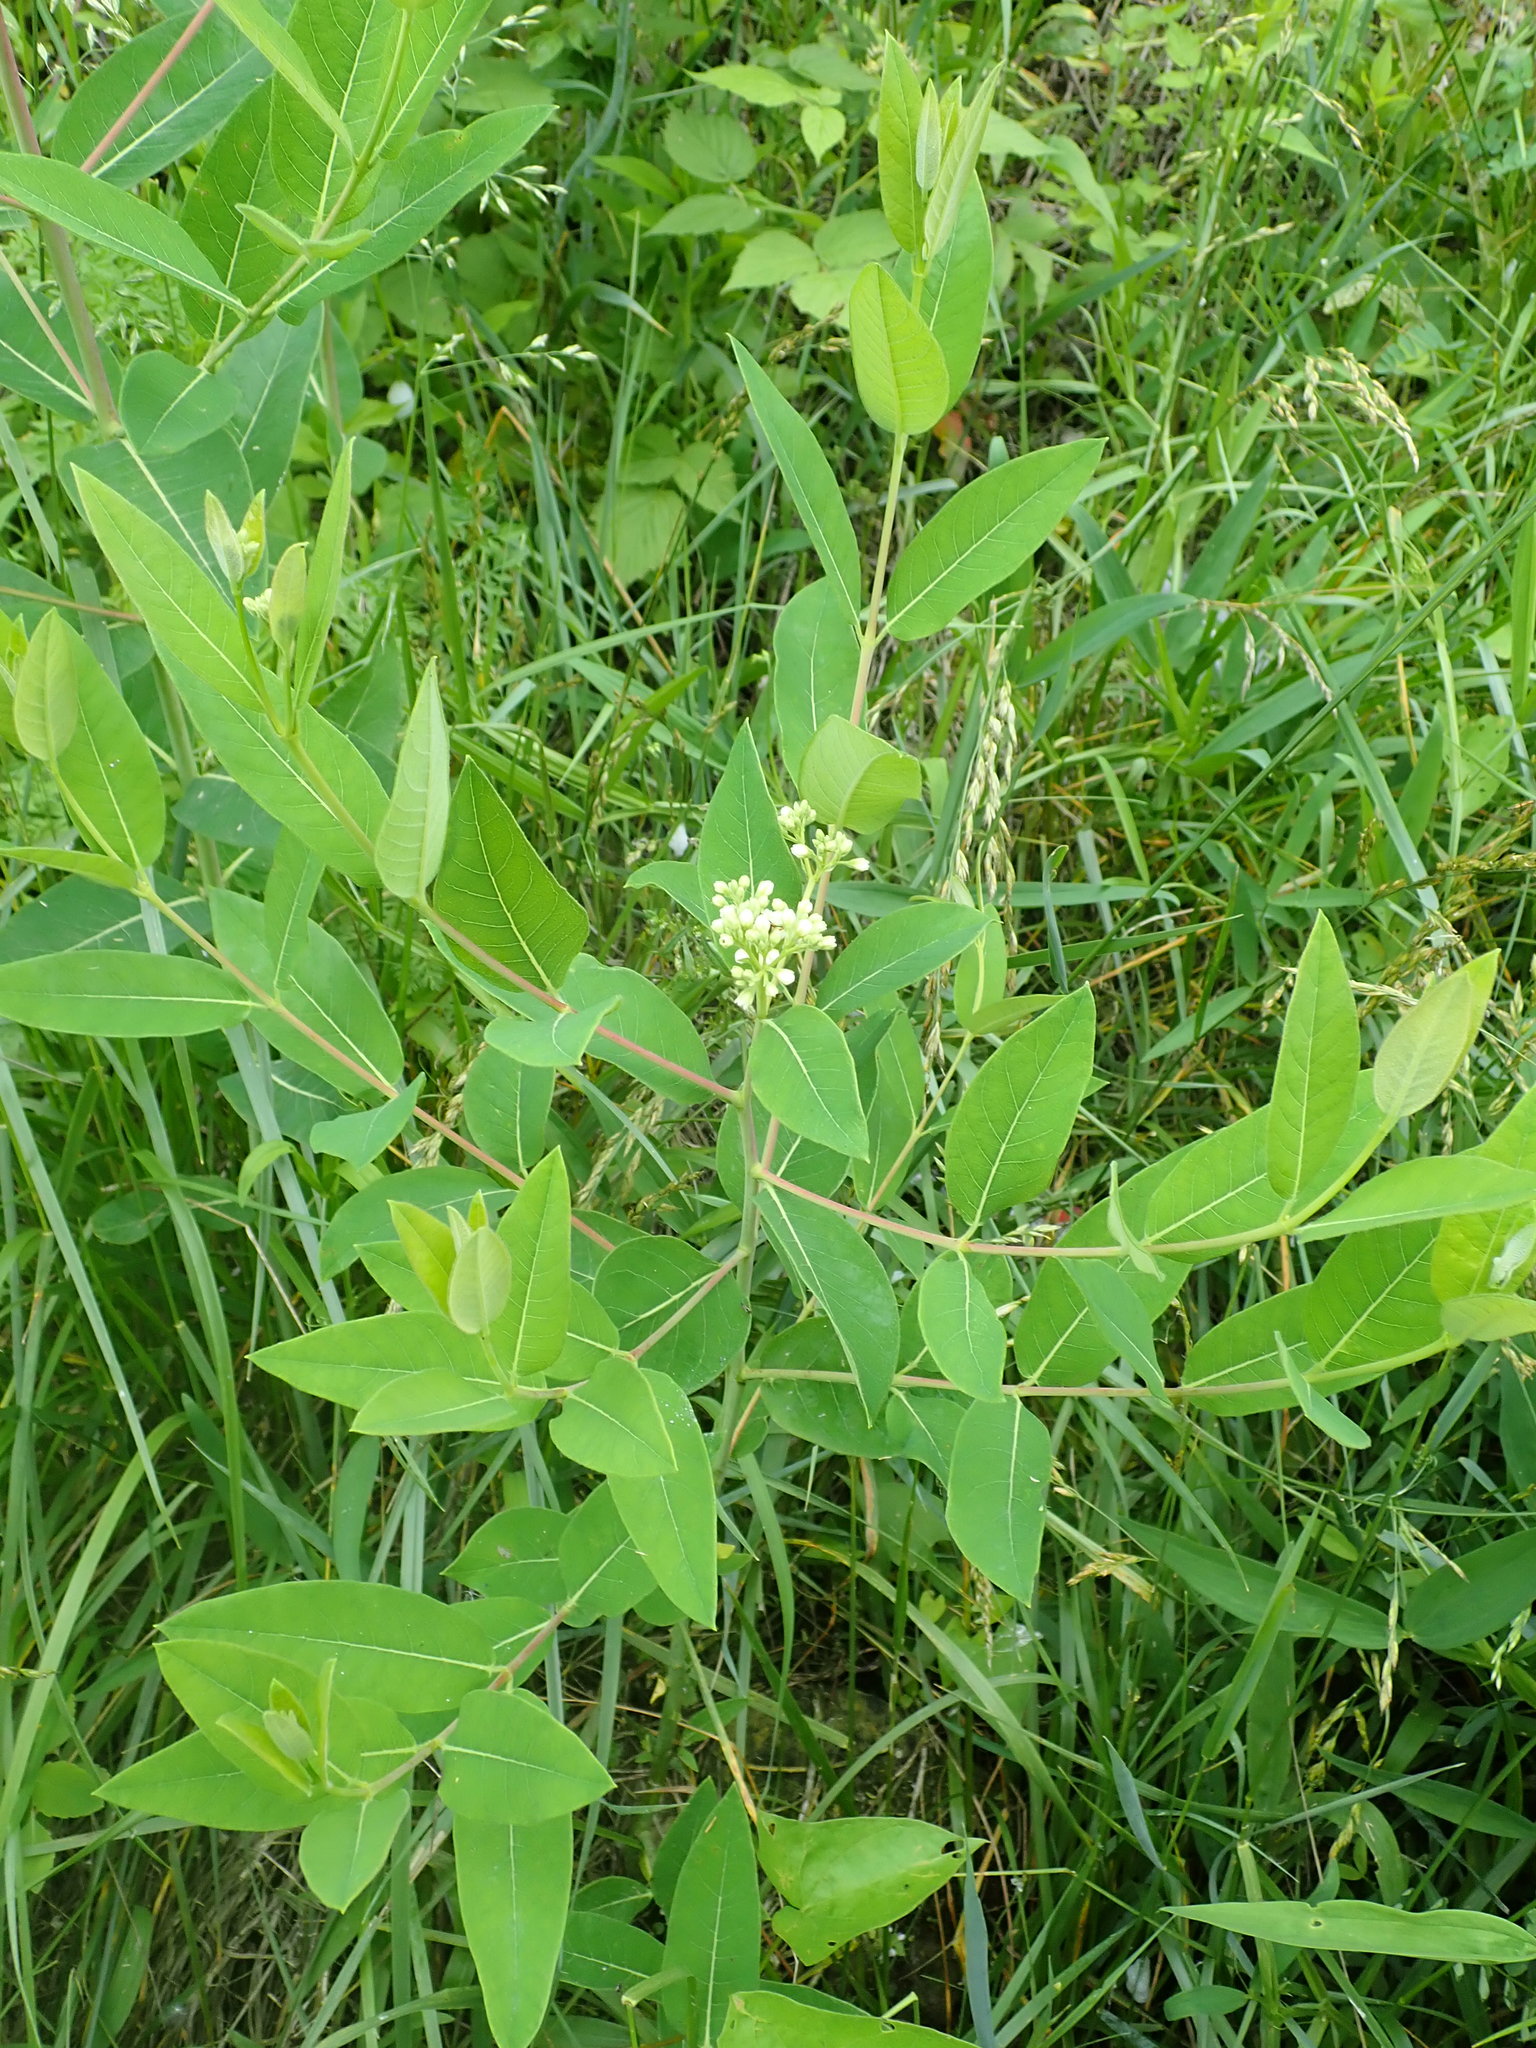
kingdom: Plantae
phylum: Tracheophyta
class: Magnoliopsida
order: Gentianales
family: Apocynaceae
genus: Apocynum
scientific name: Apocynum cannabinum
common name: Hemp dogbane
